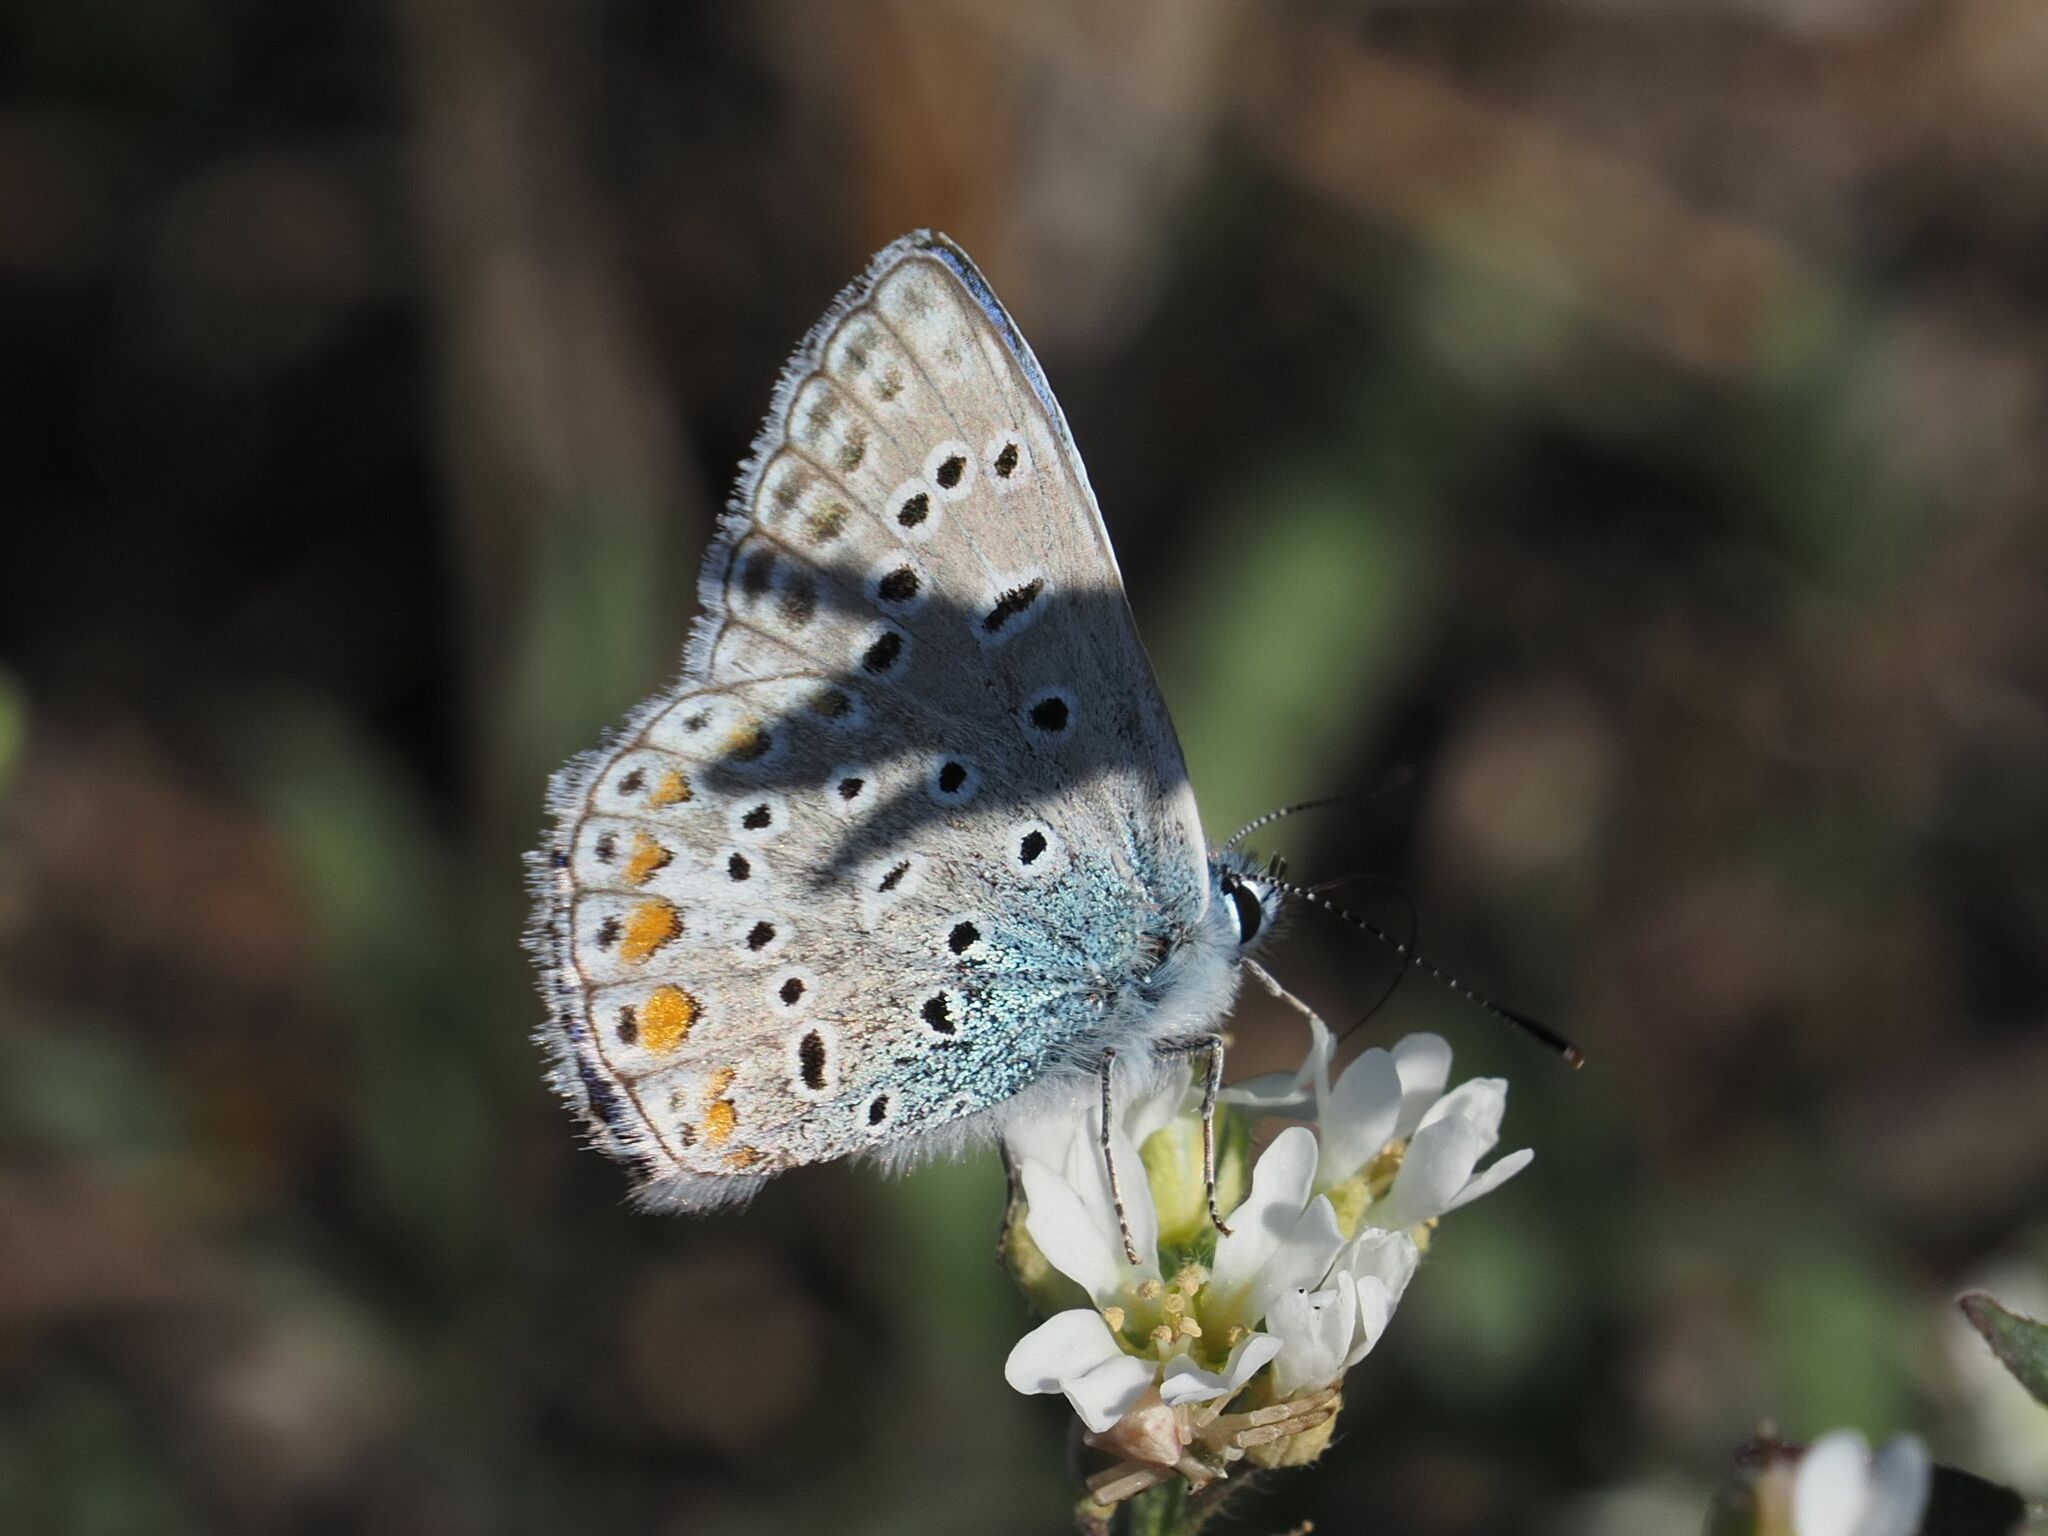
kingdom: Animalia
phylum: Arthropoda
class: Insecta
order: Lepidoptera
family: Lycaenidae
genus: Polyommatus
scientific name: Polyommatus icarus
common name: Common blue
